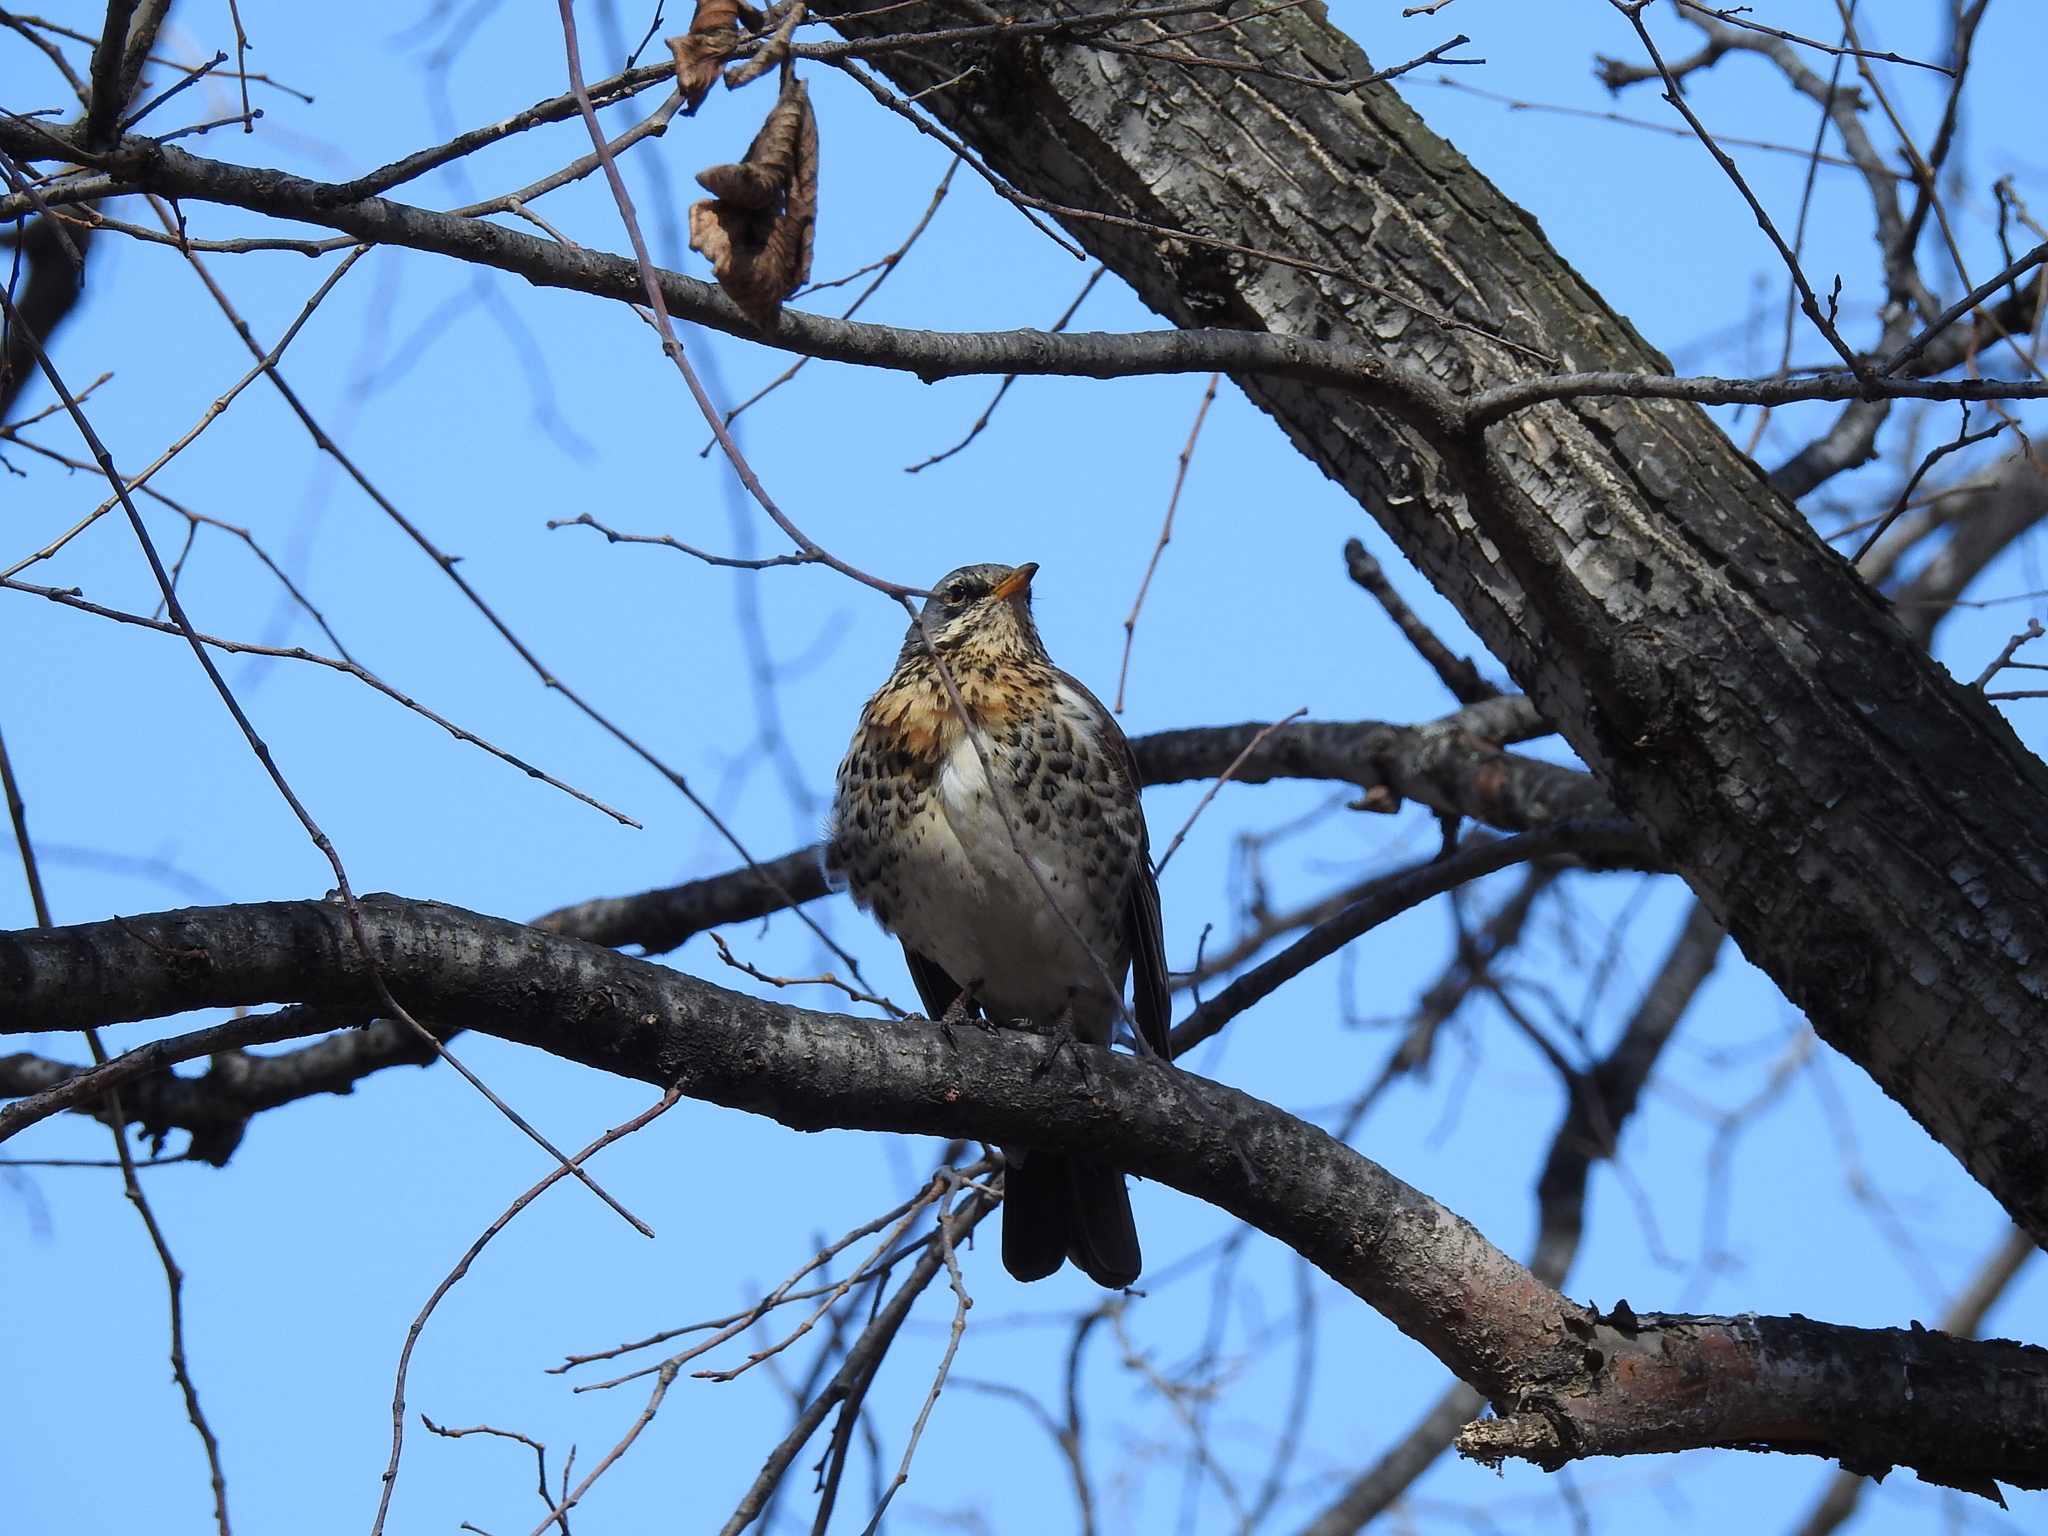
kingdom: Animalia
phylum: Chordata
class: Aves
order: Passeriformes
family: Turdidae
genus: Turdus
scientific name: Turdus pilaris
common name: Fieldfare
